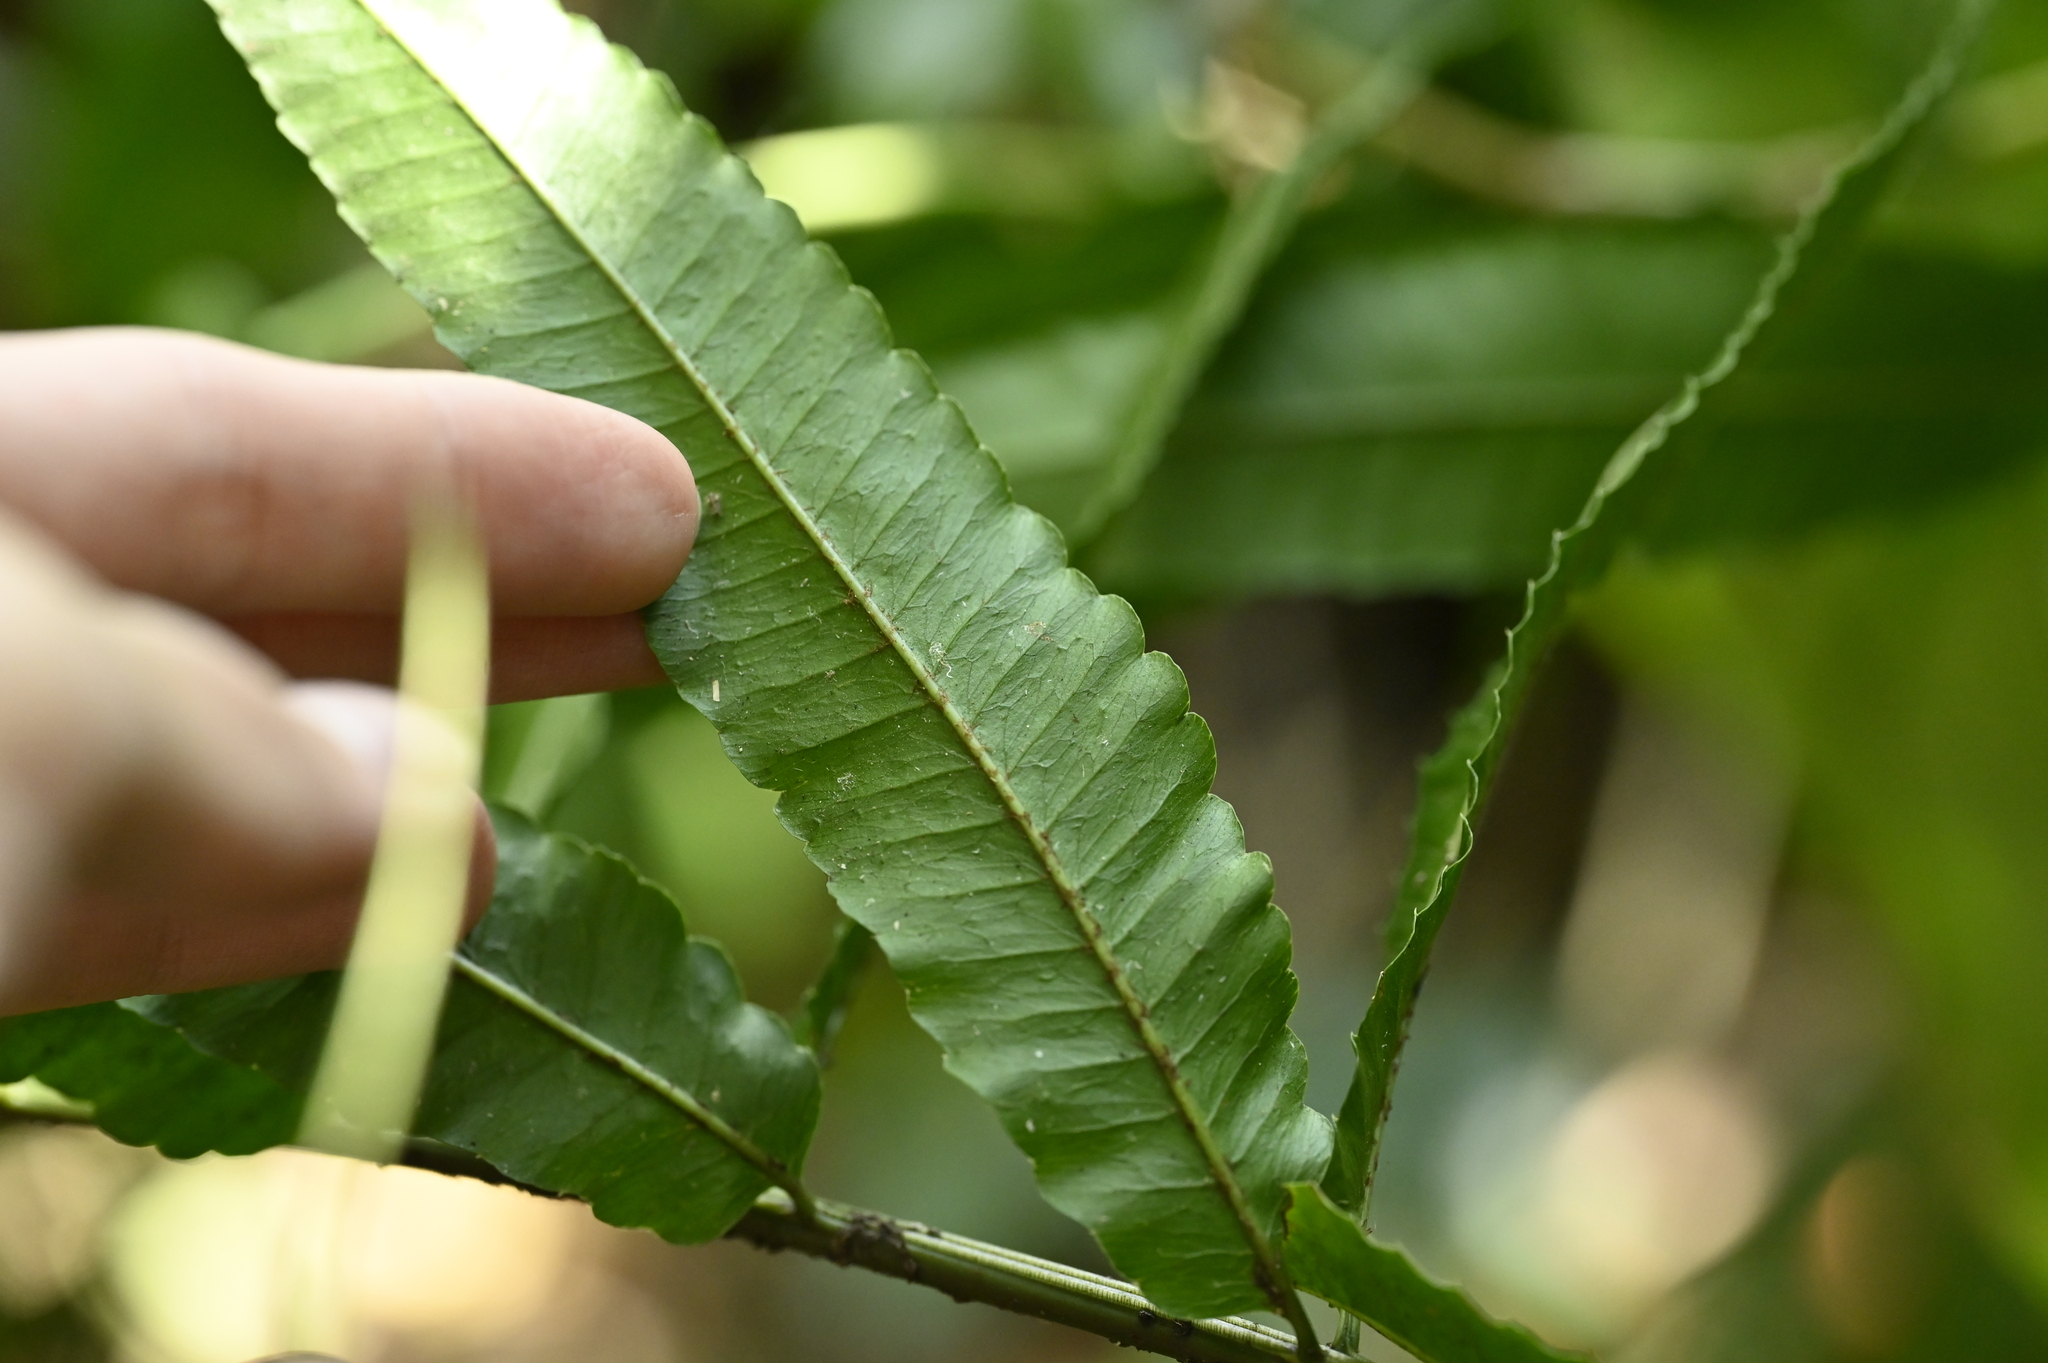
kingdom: Plantae
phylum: Tracheophyta
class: Polypodiopsida
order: Polypodiales
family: Dryopteridaceae
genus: Bolbitis
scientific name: Bolbitis angustipinna
